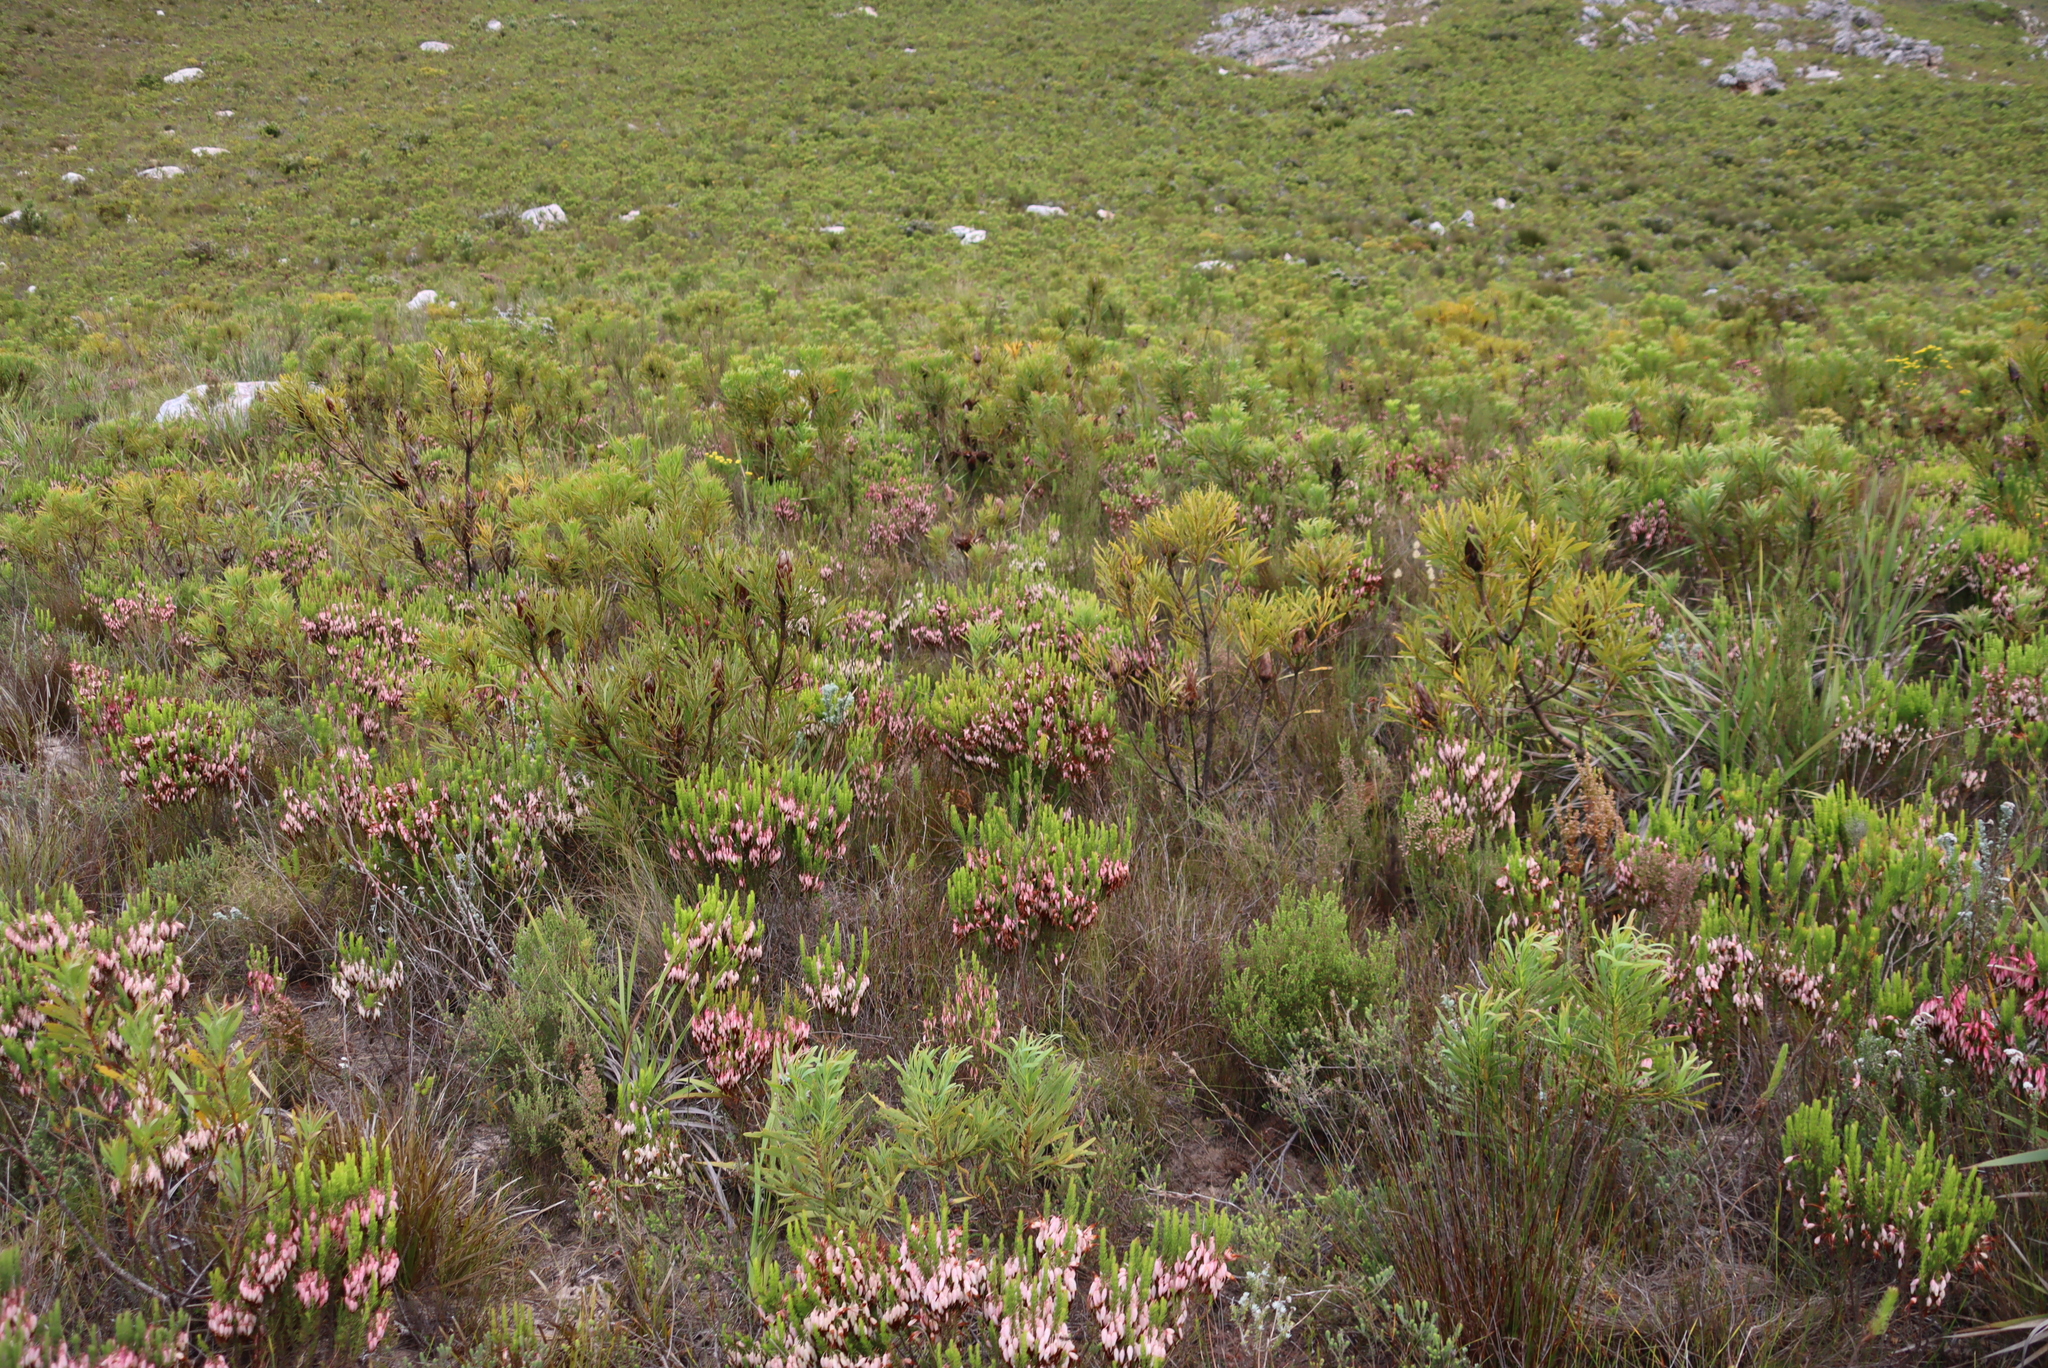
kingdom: Plantae
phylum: Tracheophyta
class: Magnoliopsida
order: Proteales
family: Proteaceae
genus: Protea
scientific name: Protea repens
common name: Sugarbush
